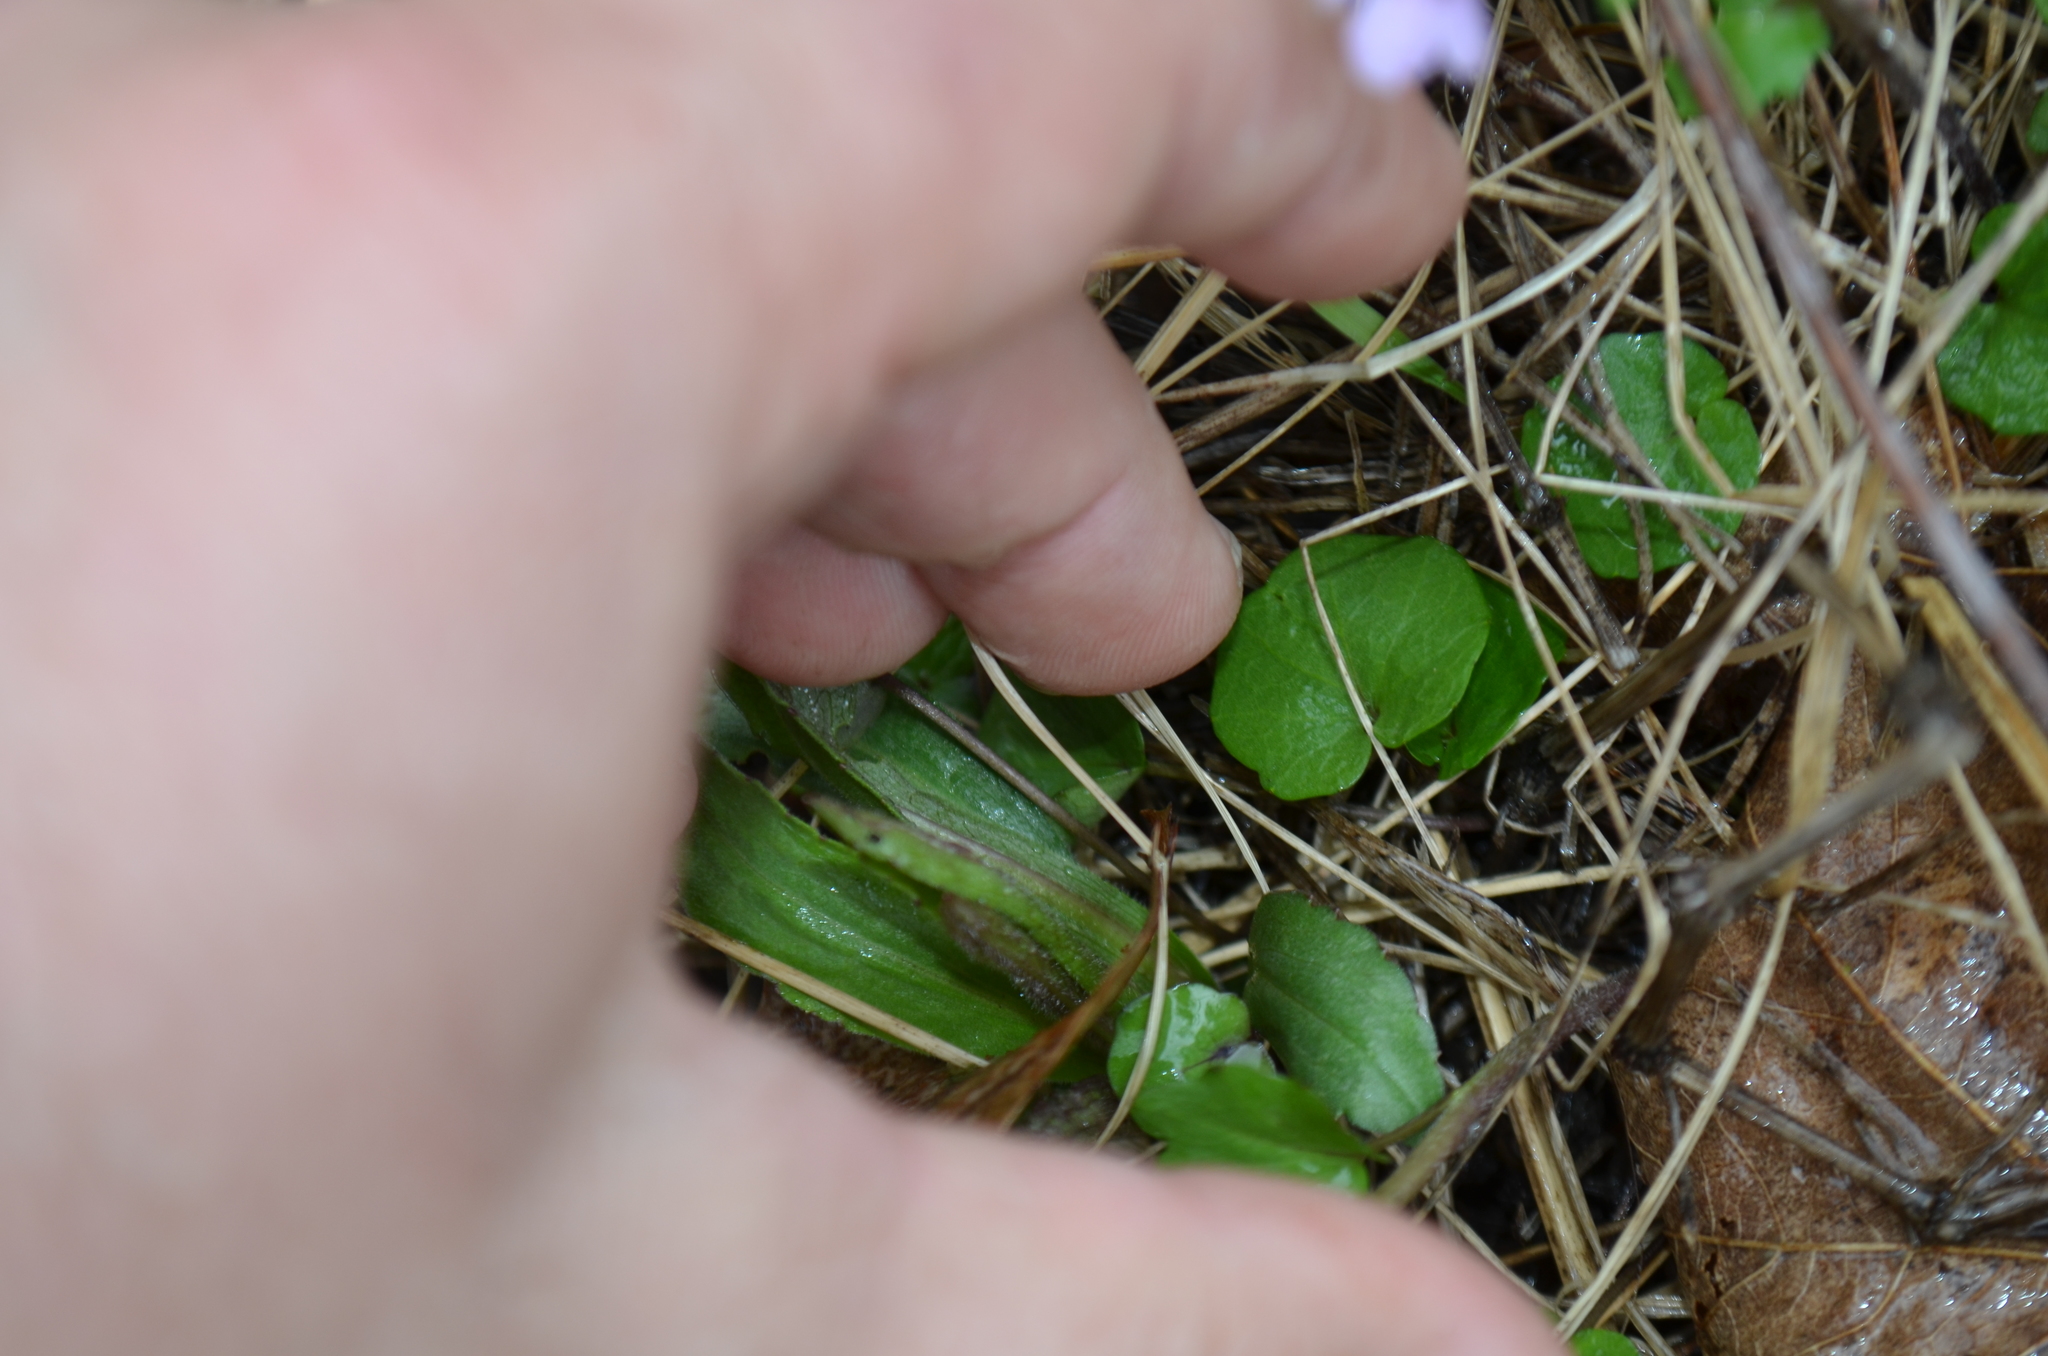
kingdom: Plantae
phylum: Tracheophyta
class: Magnoliopsida
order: Brassicales
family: Brassicaceae
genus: Cardamine
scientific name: Cardamine douglassii
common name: Purple cress
